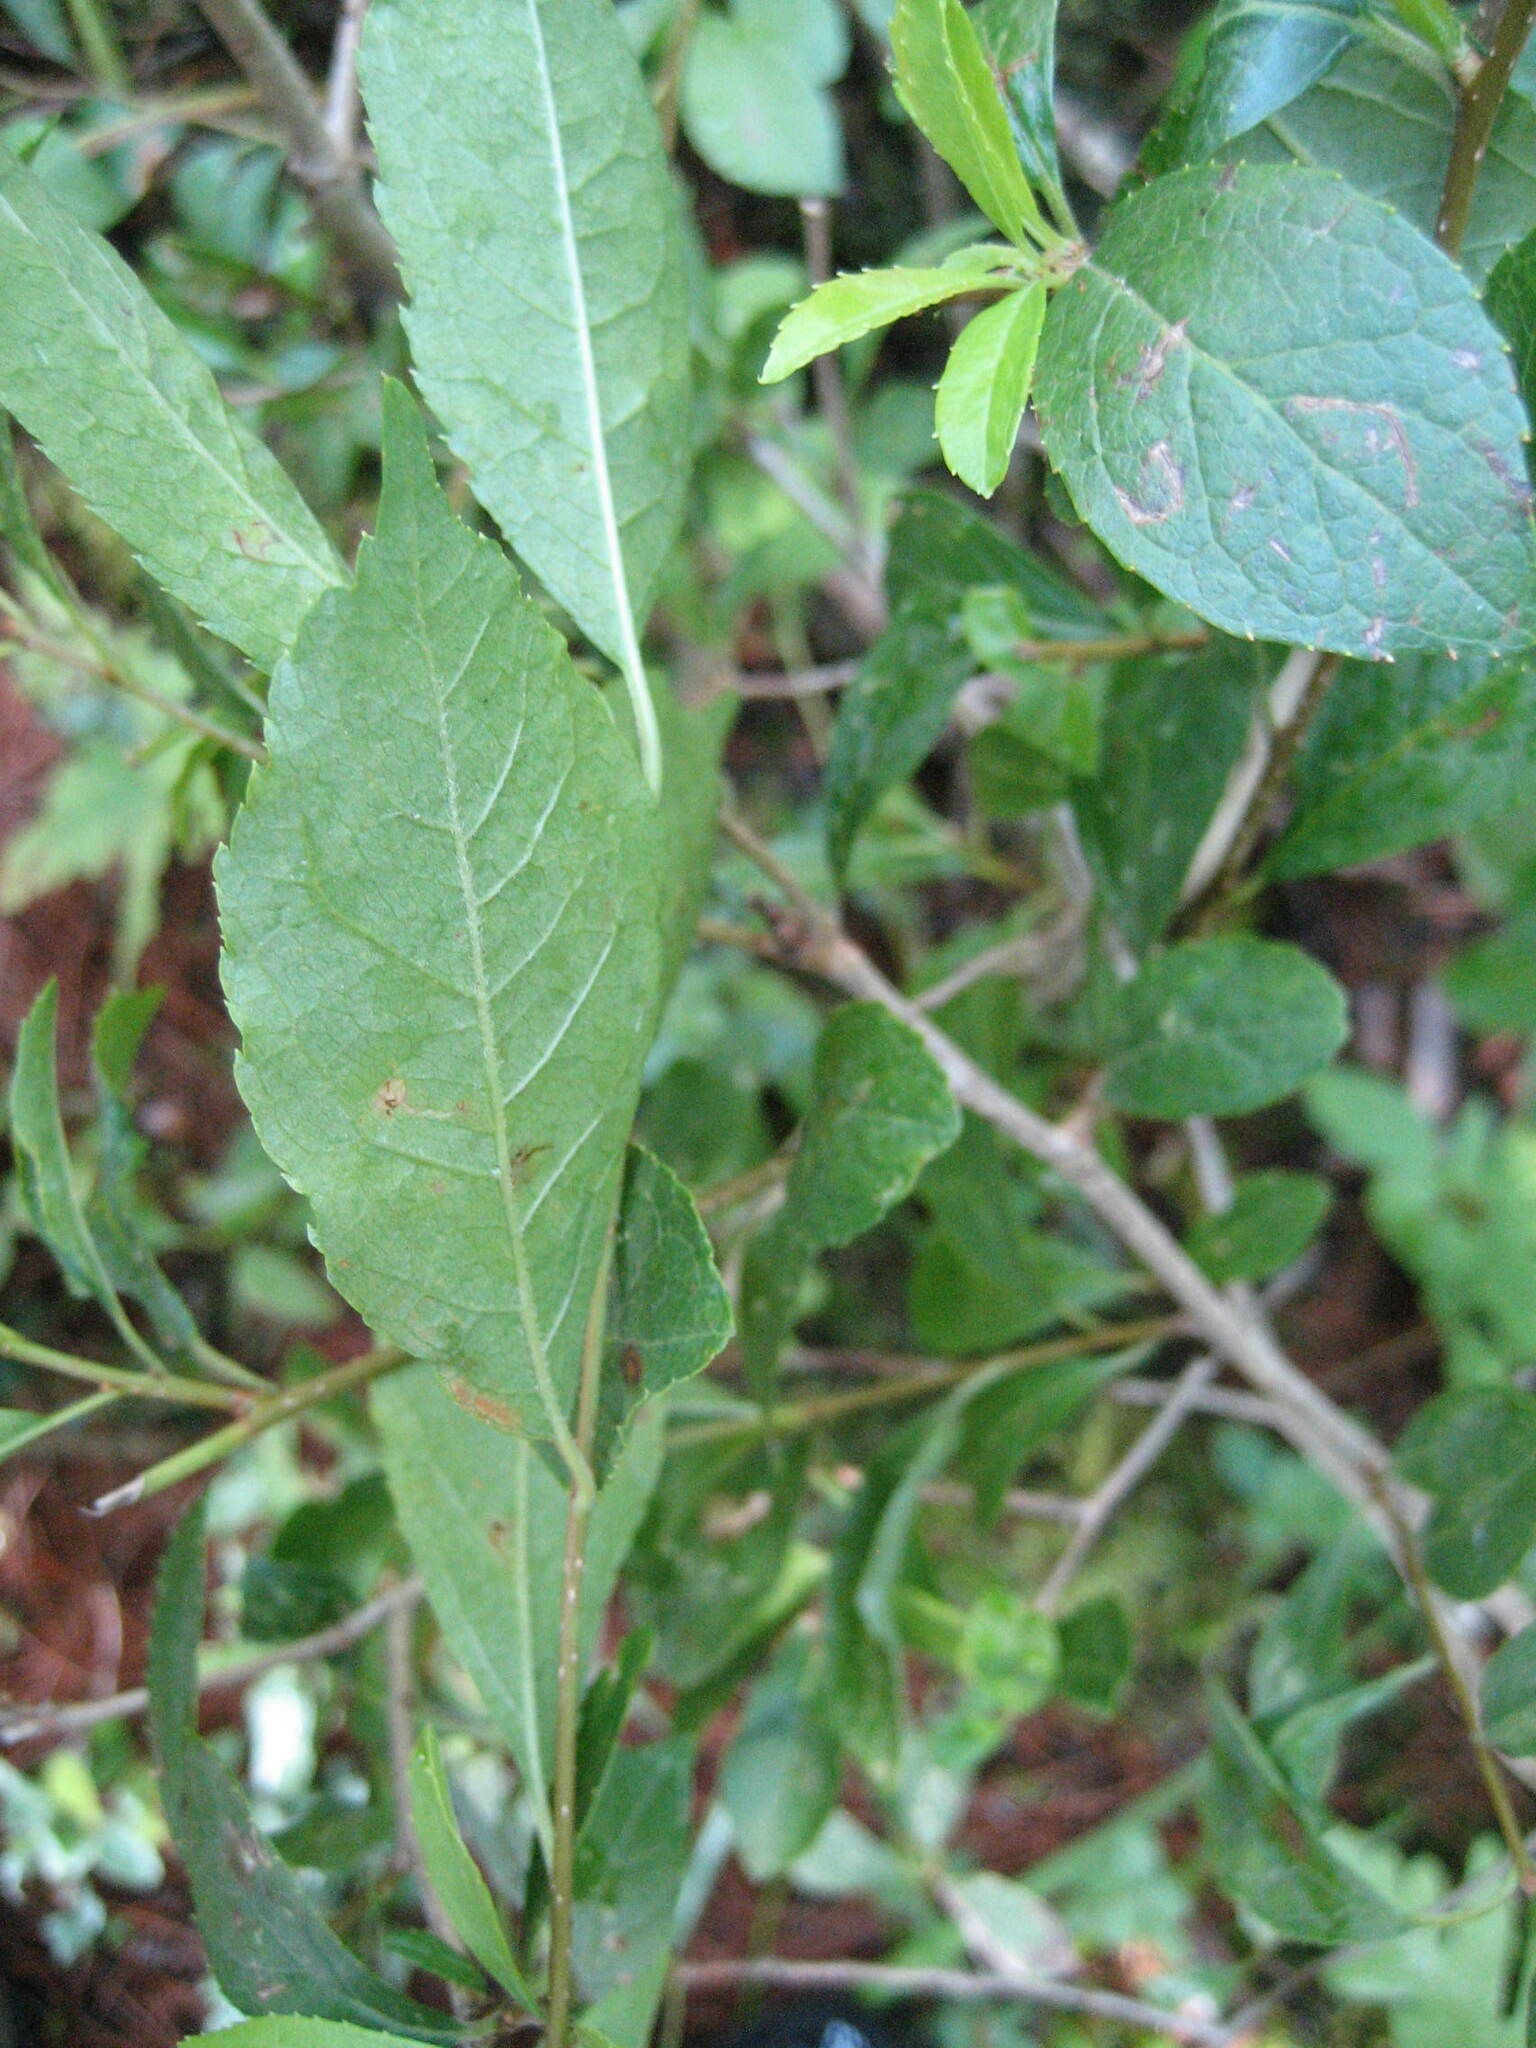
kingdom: Plantae
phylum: Tracheophyta
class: Magnoliopsida
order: Aquifoliales
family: Aquifoliaceae
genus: Ilex
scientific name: Ilex verticillata
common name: Virginia winterberry
